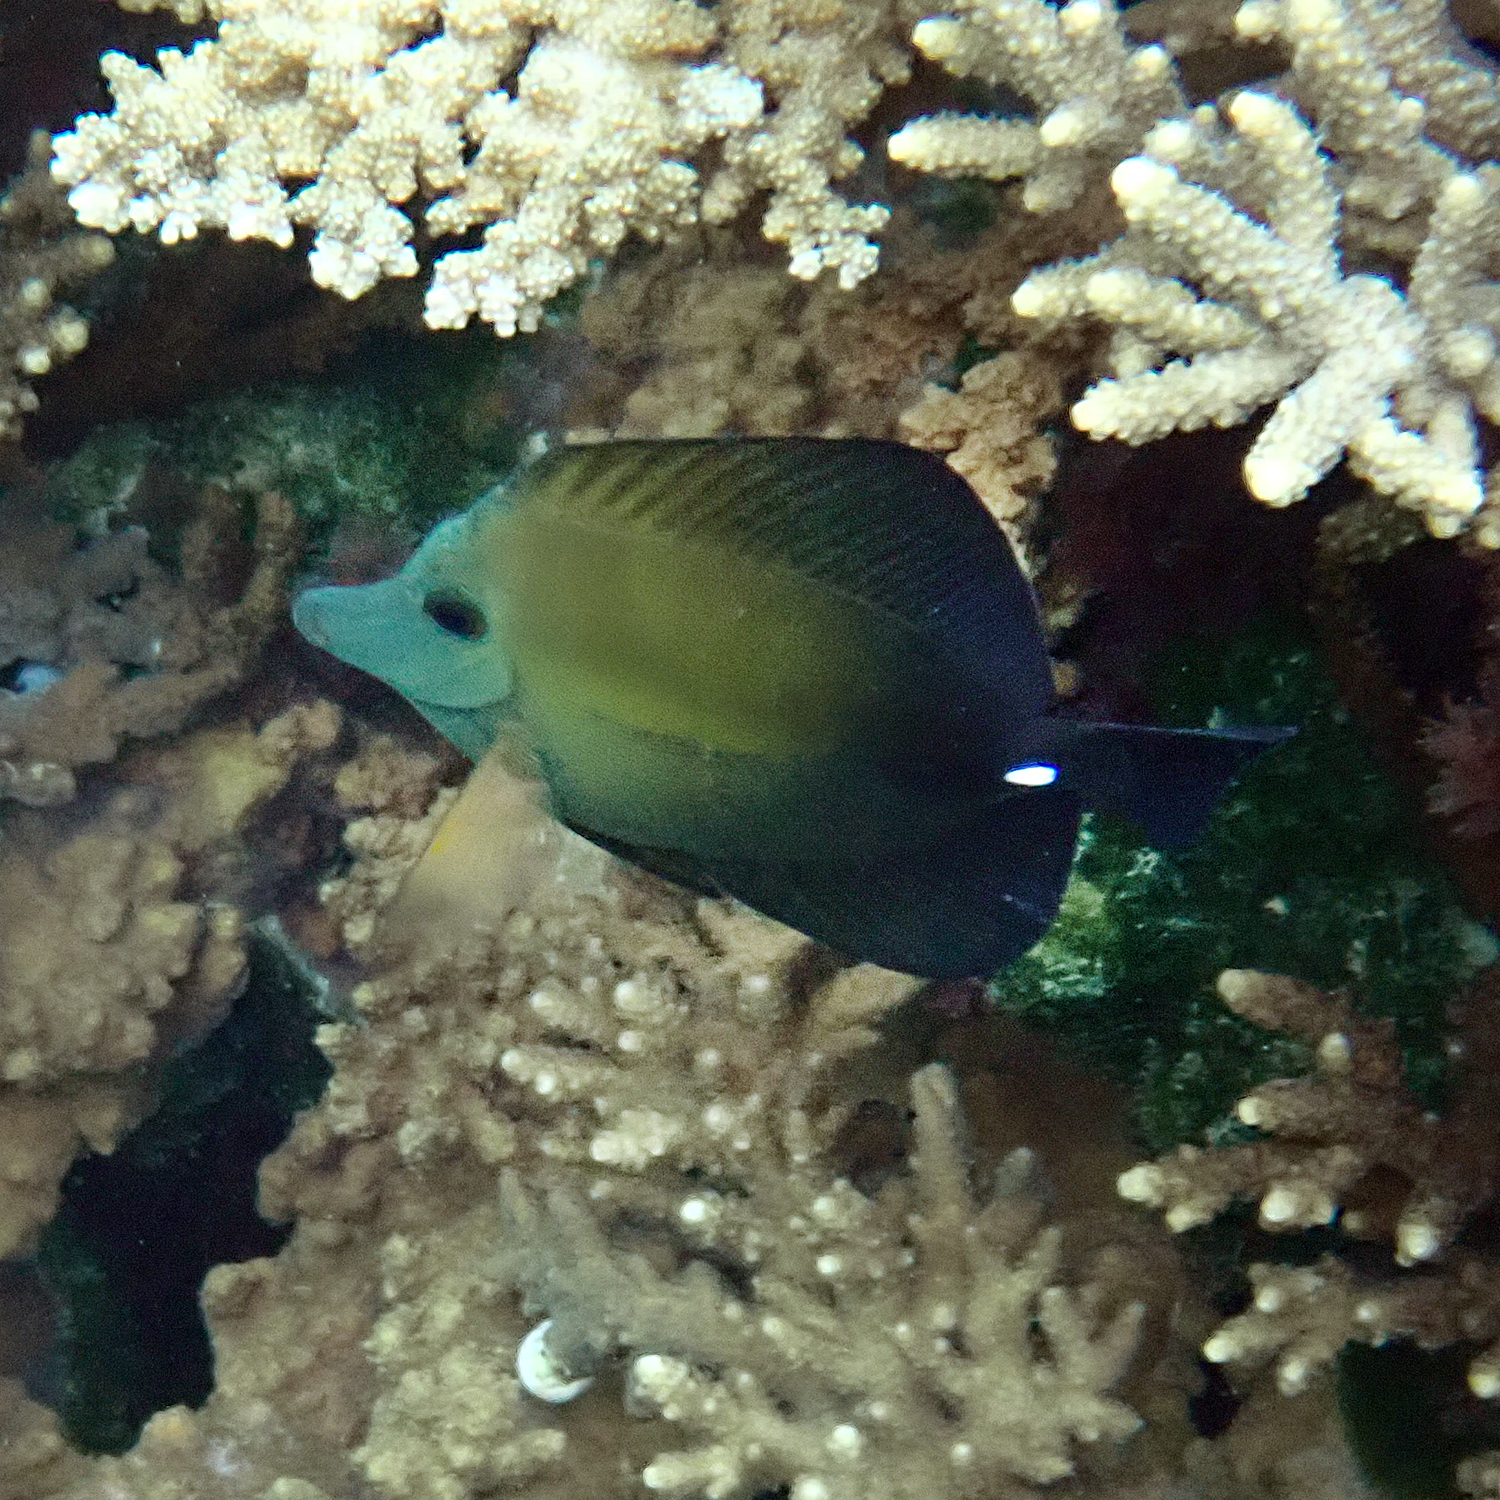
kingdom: Animalia
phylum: Chordata
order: Perciformes
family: Acanthuridae
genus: Zebrasoma
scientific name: Zebrasoma scopas
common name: Twotone tang
